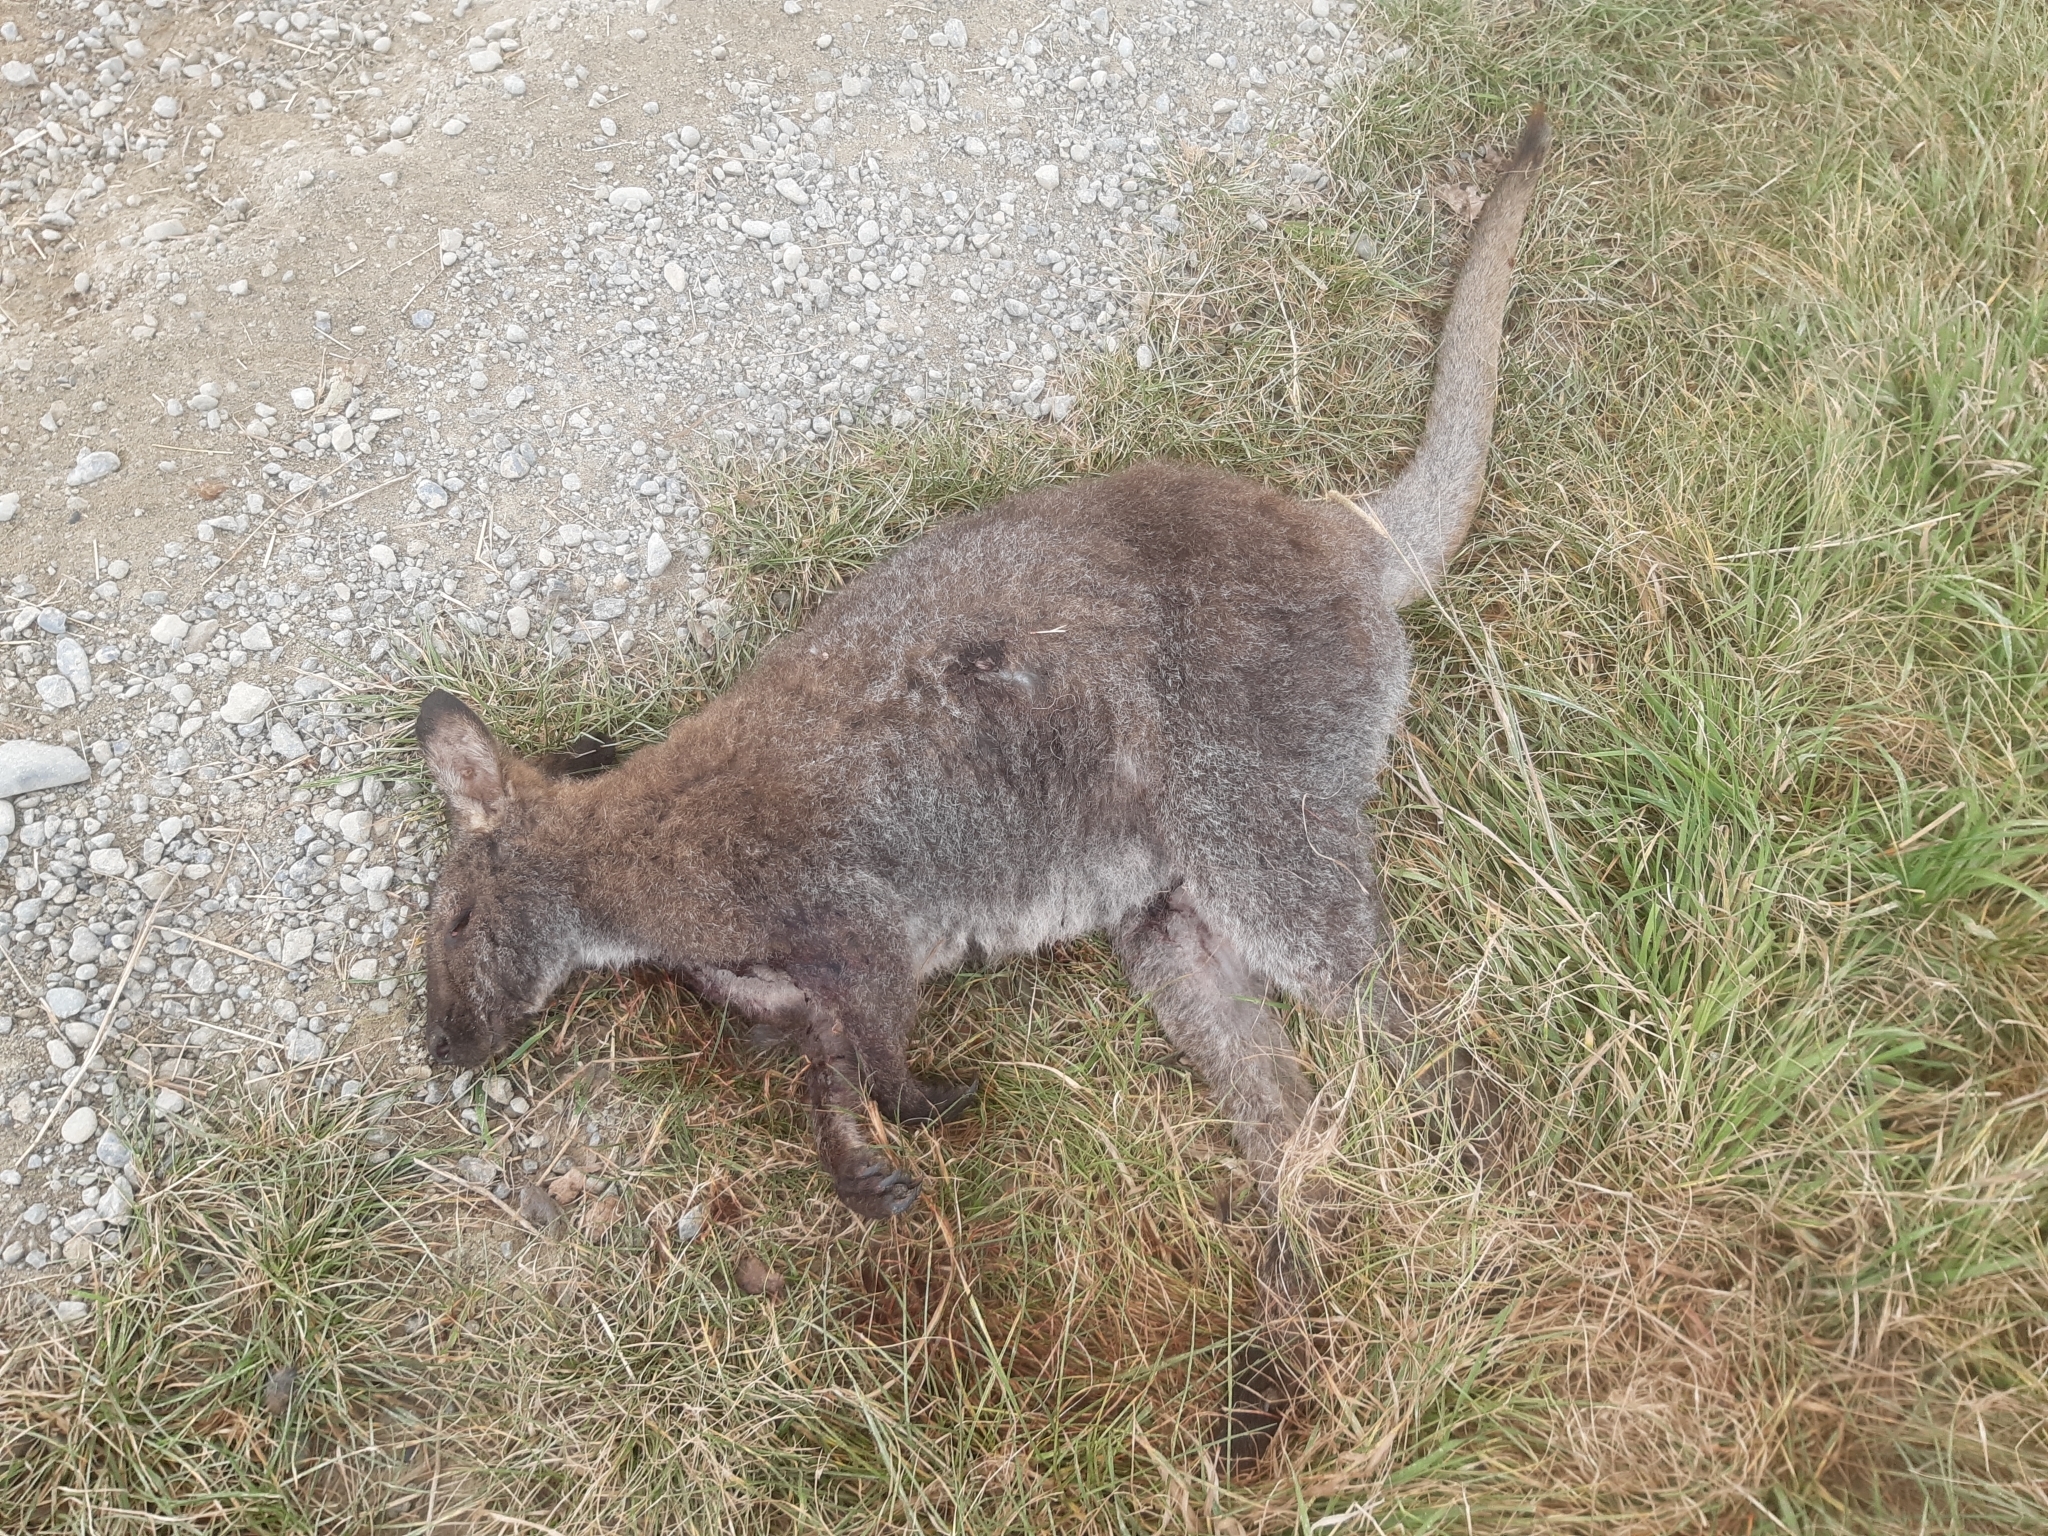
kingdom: Animalia
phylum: Chordata
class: Mammalia
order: Diprotodontia
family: Macropodidae
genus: Notamacropus
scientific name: Notamacropus rufogriseus
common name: Red-necked wallaby
